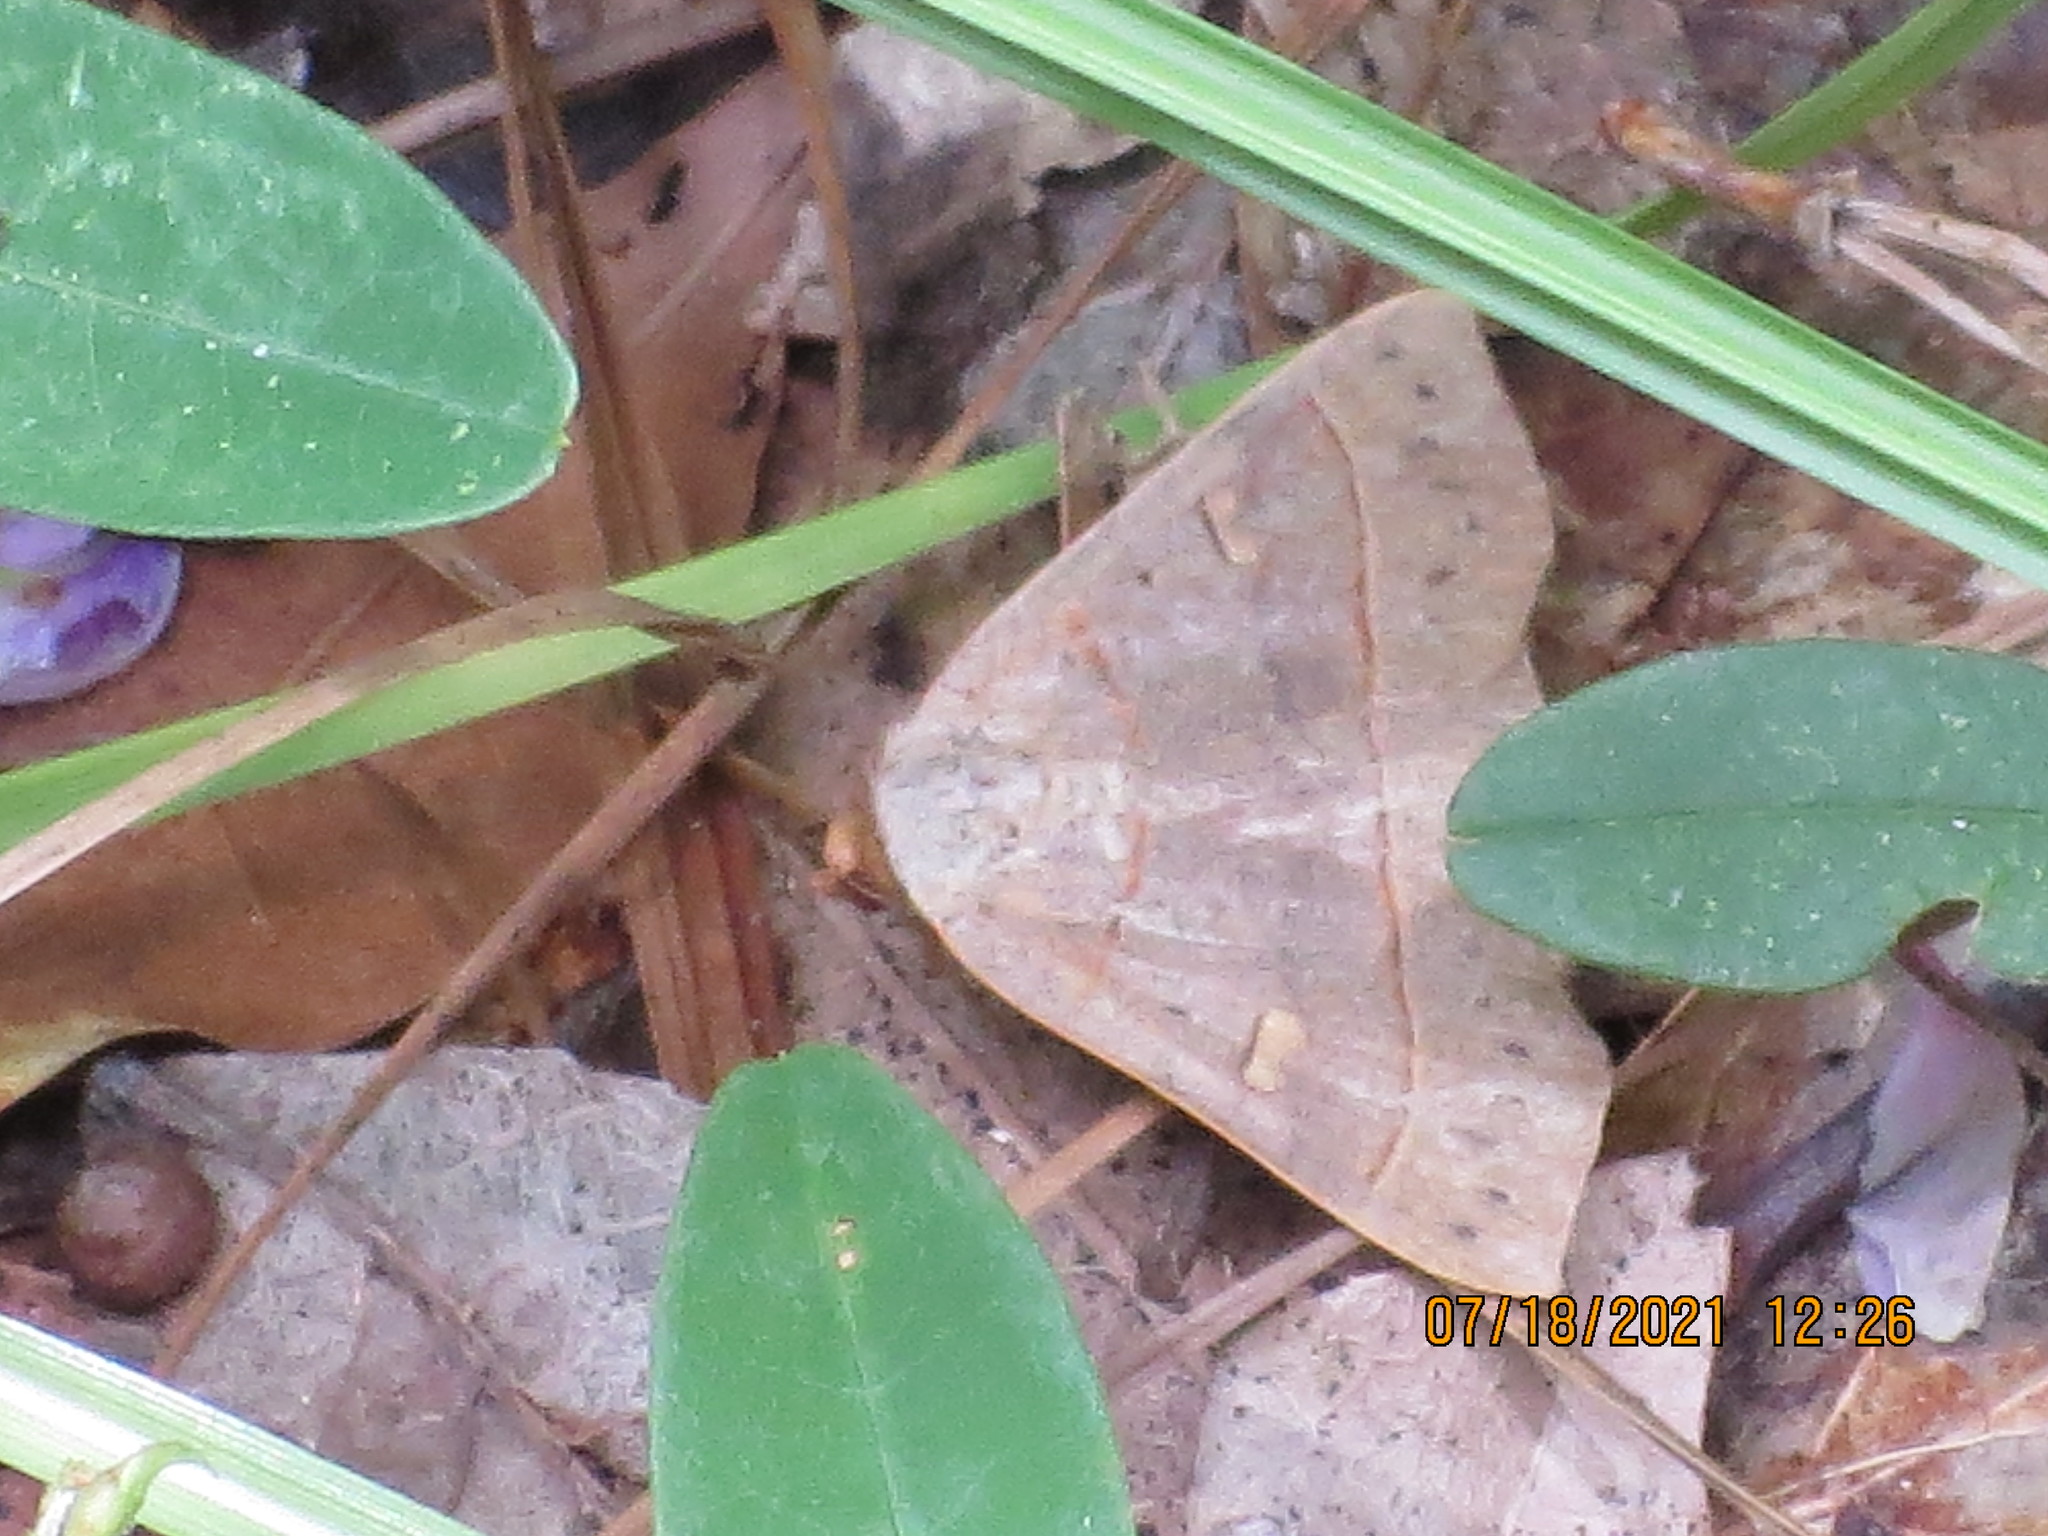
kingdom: Animalia
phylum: Arthropoda
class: Insecta
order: Lepidoptera
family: Erebidae
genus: Panopoda
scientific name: Panopoda rufimargo
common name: Red-lined panopoda moth
